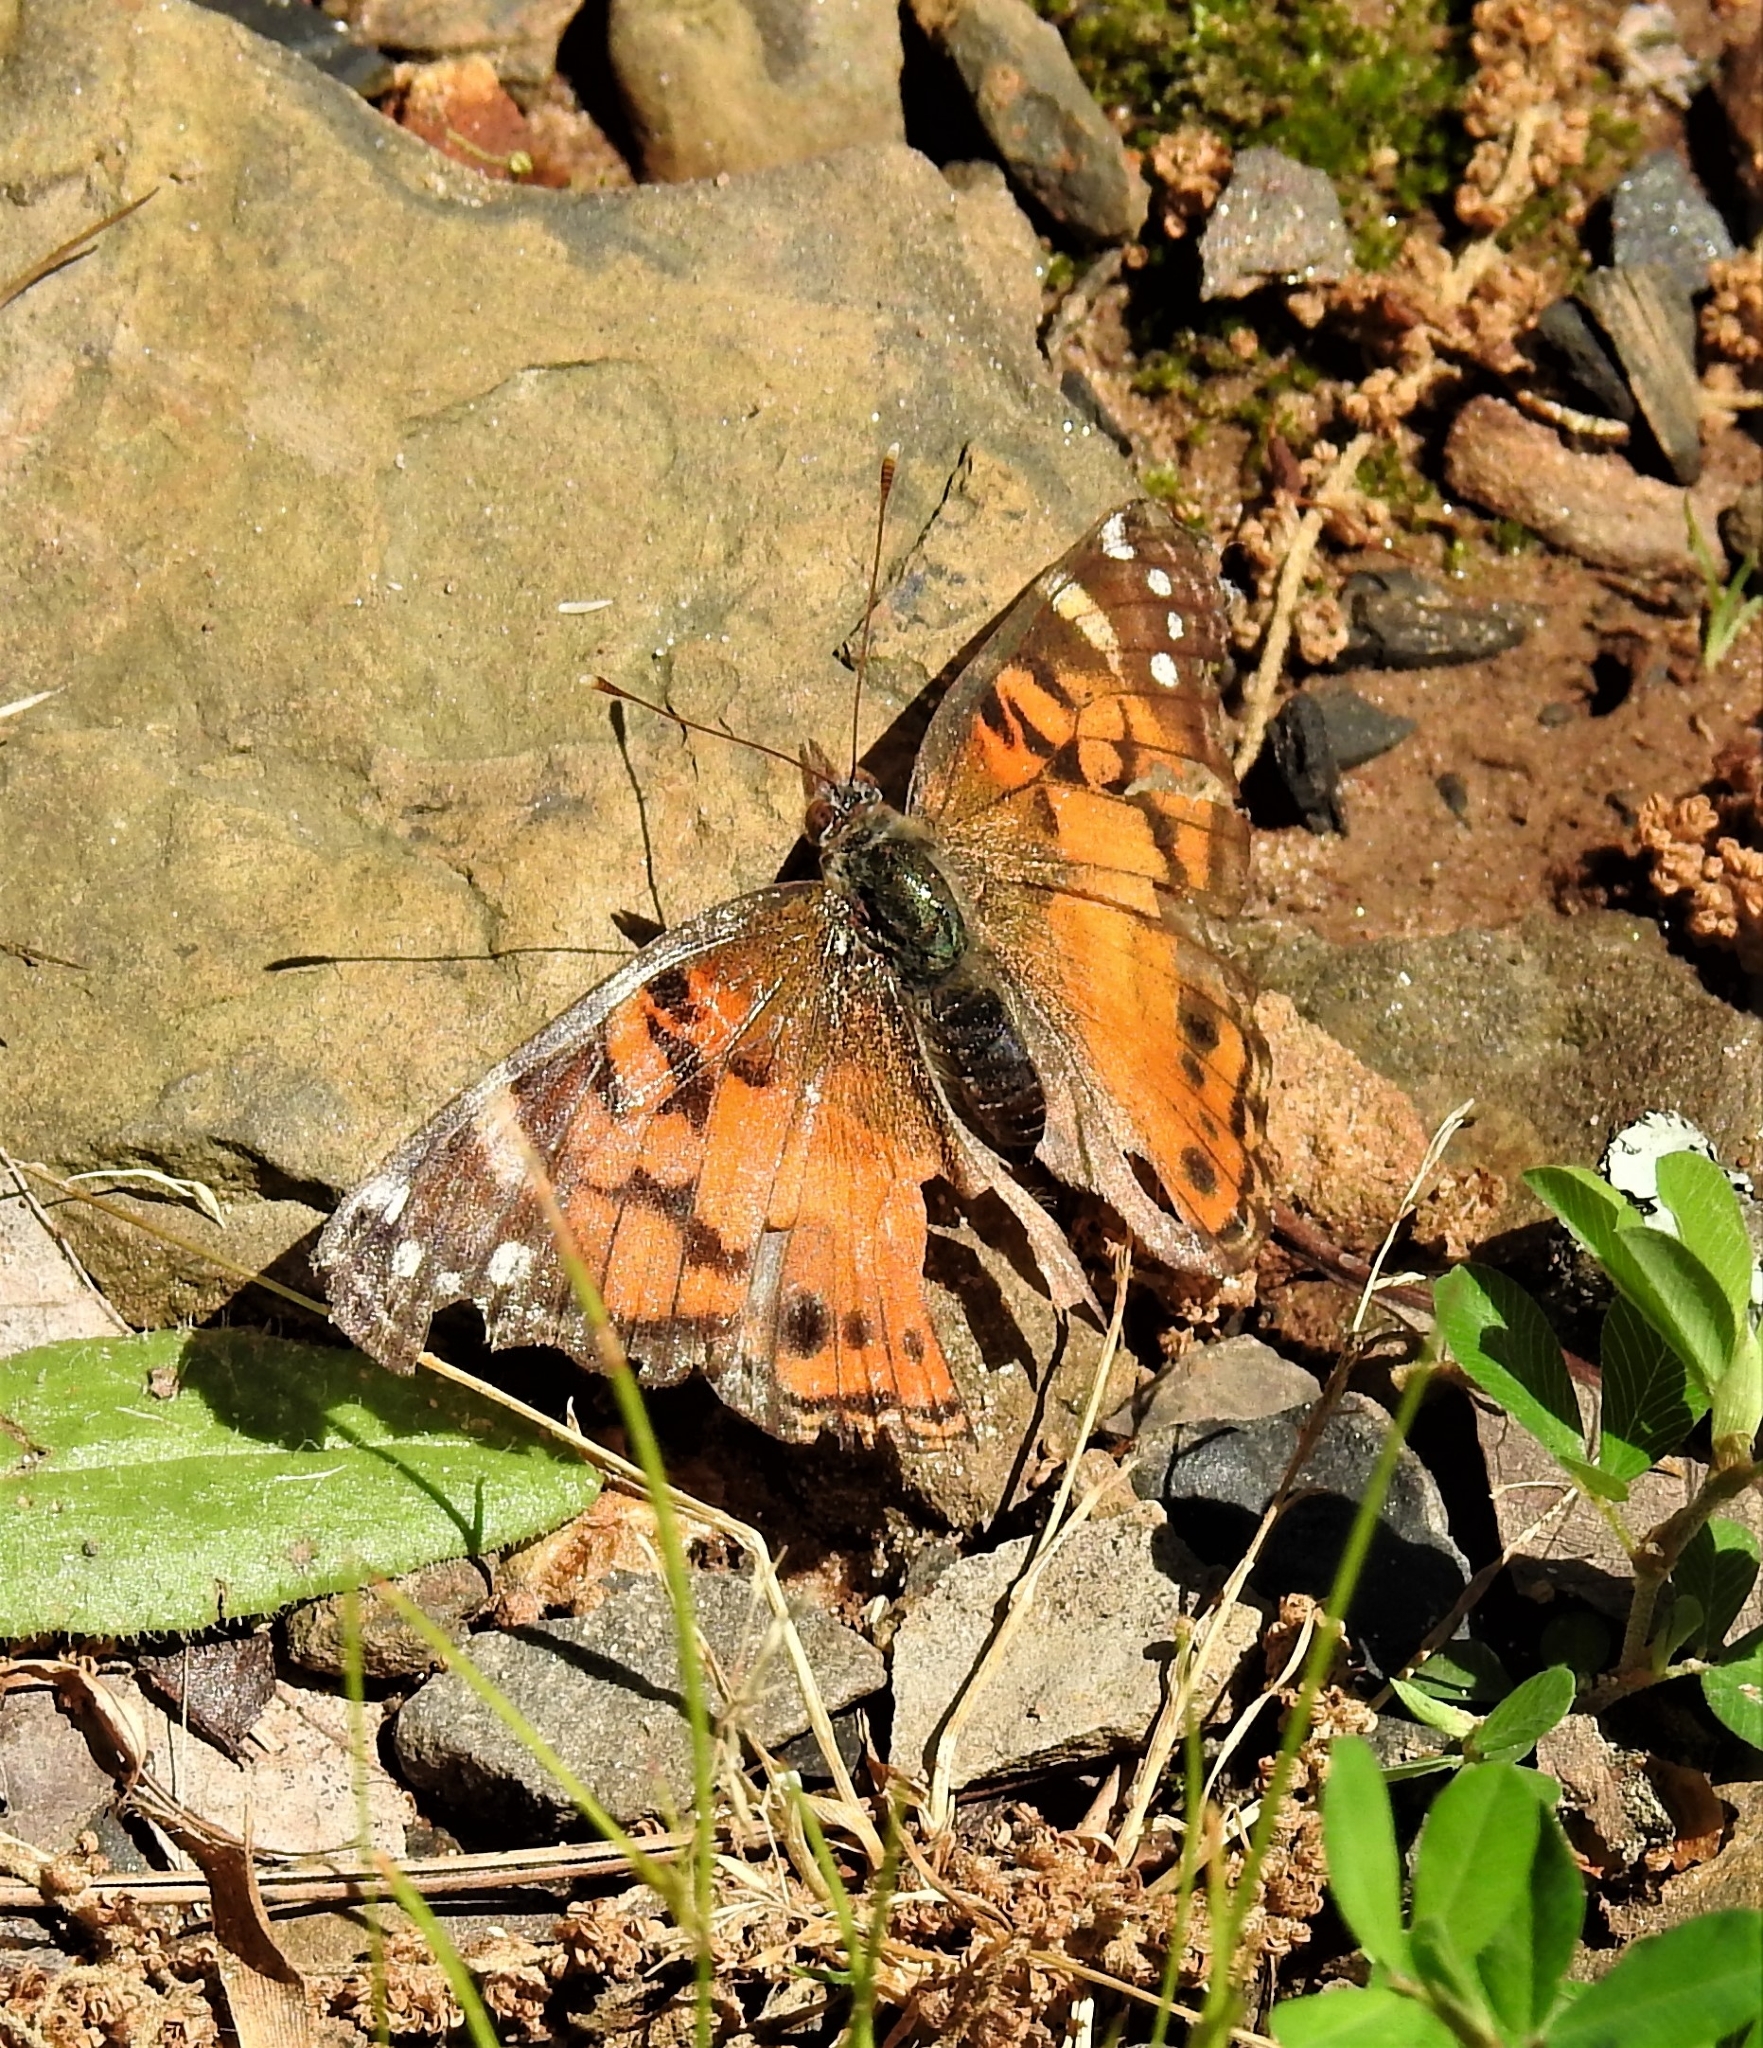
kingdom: Animalia
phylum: Arthropoda
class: Insecta
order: Lepidoptera
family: Nymphalidae
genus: Vanessa
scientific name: Vanessa virginiensis
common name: American lady
